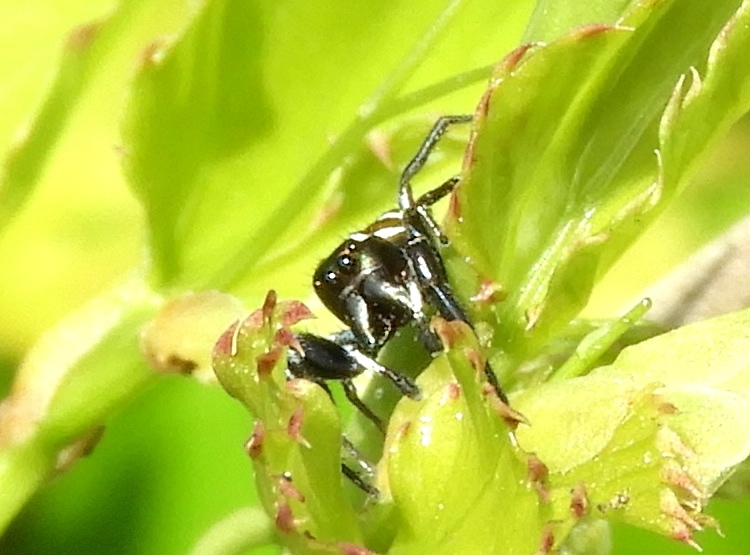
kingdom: Animalia
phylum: Arthropoda
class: Arachnida
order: Araneae
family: Salticidae
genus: Sassacus
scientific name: Sassacus
